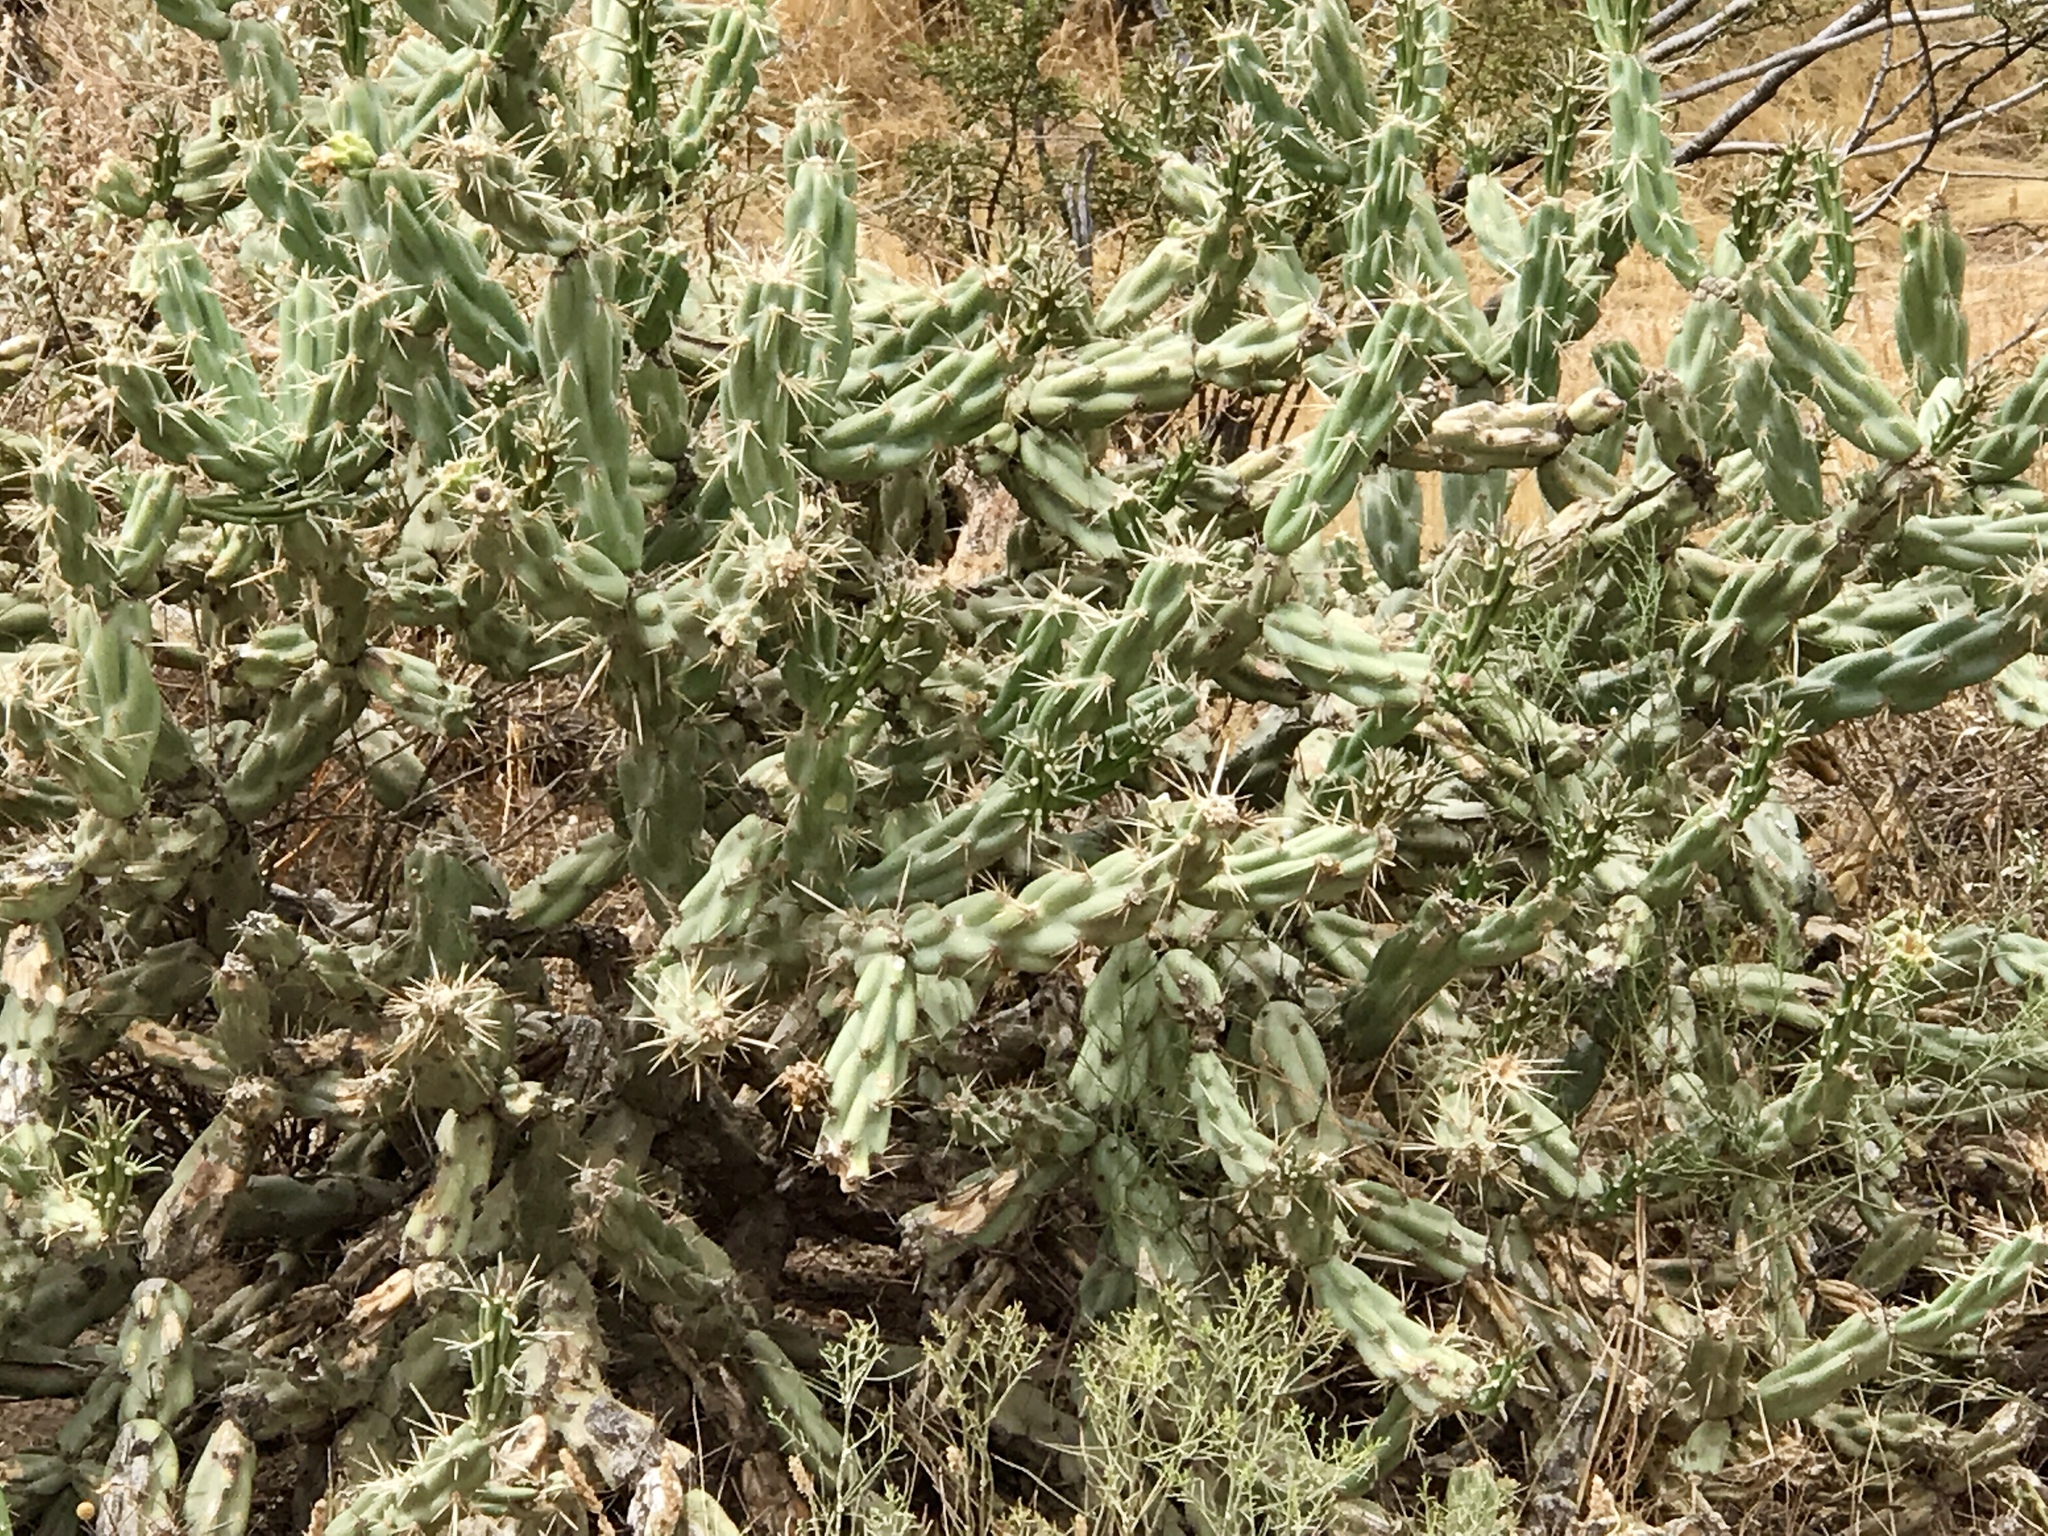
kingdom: Plantae
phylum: Tracheophyta
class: Magnoliopsida
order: Caryophyllales
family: Cactaceae
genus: Cylindropuntia
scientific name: Cylindropuntia acanthocarpa
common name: Buckhorn cholla
